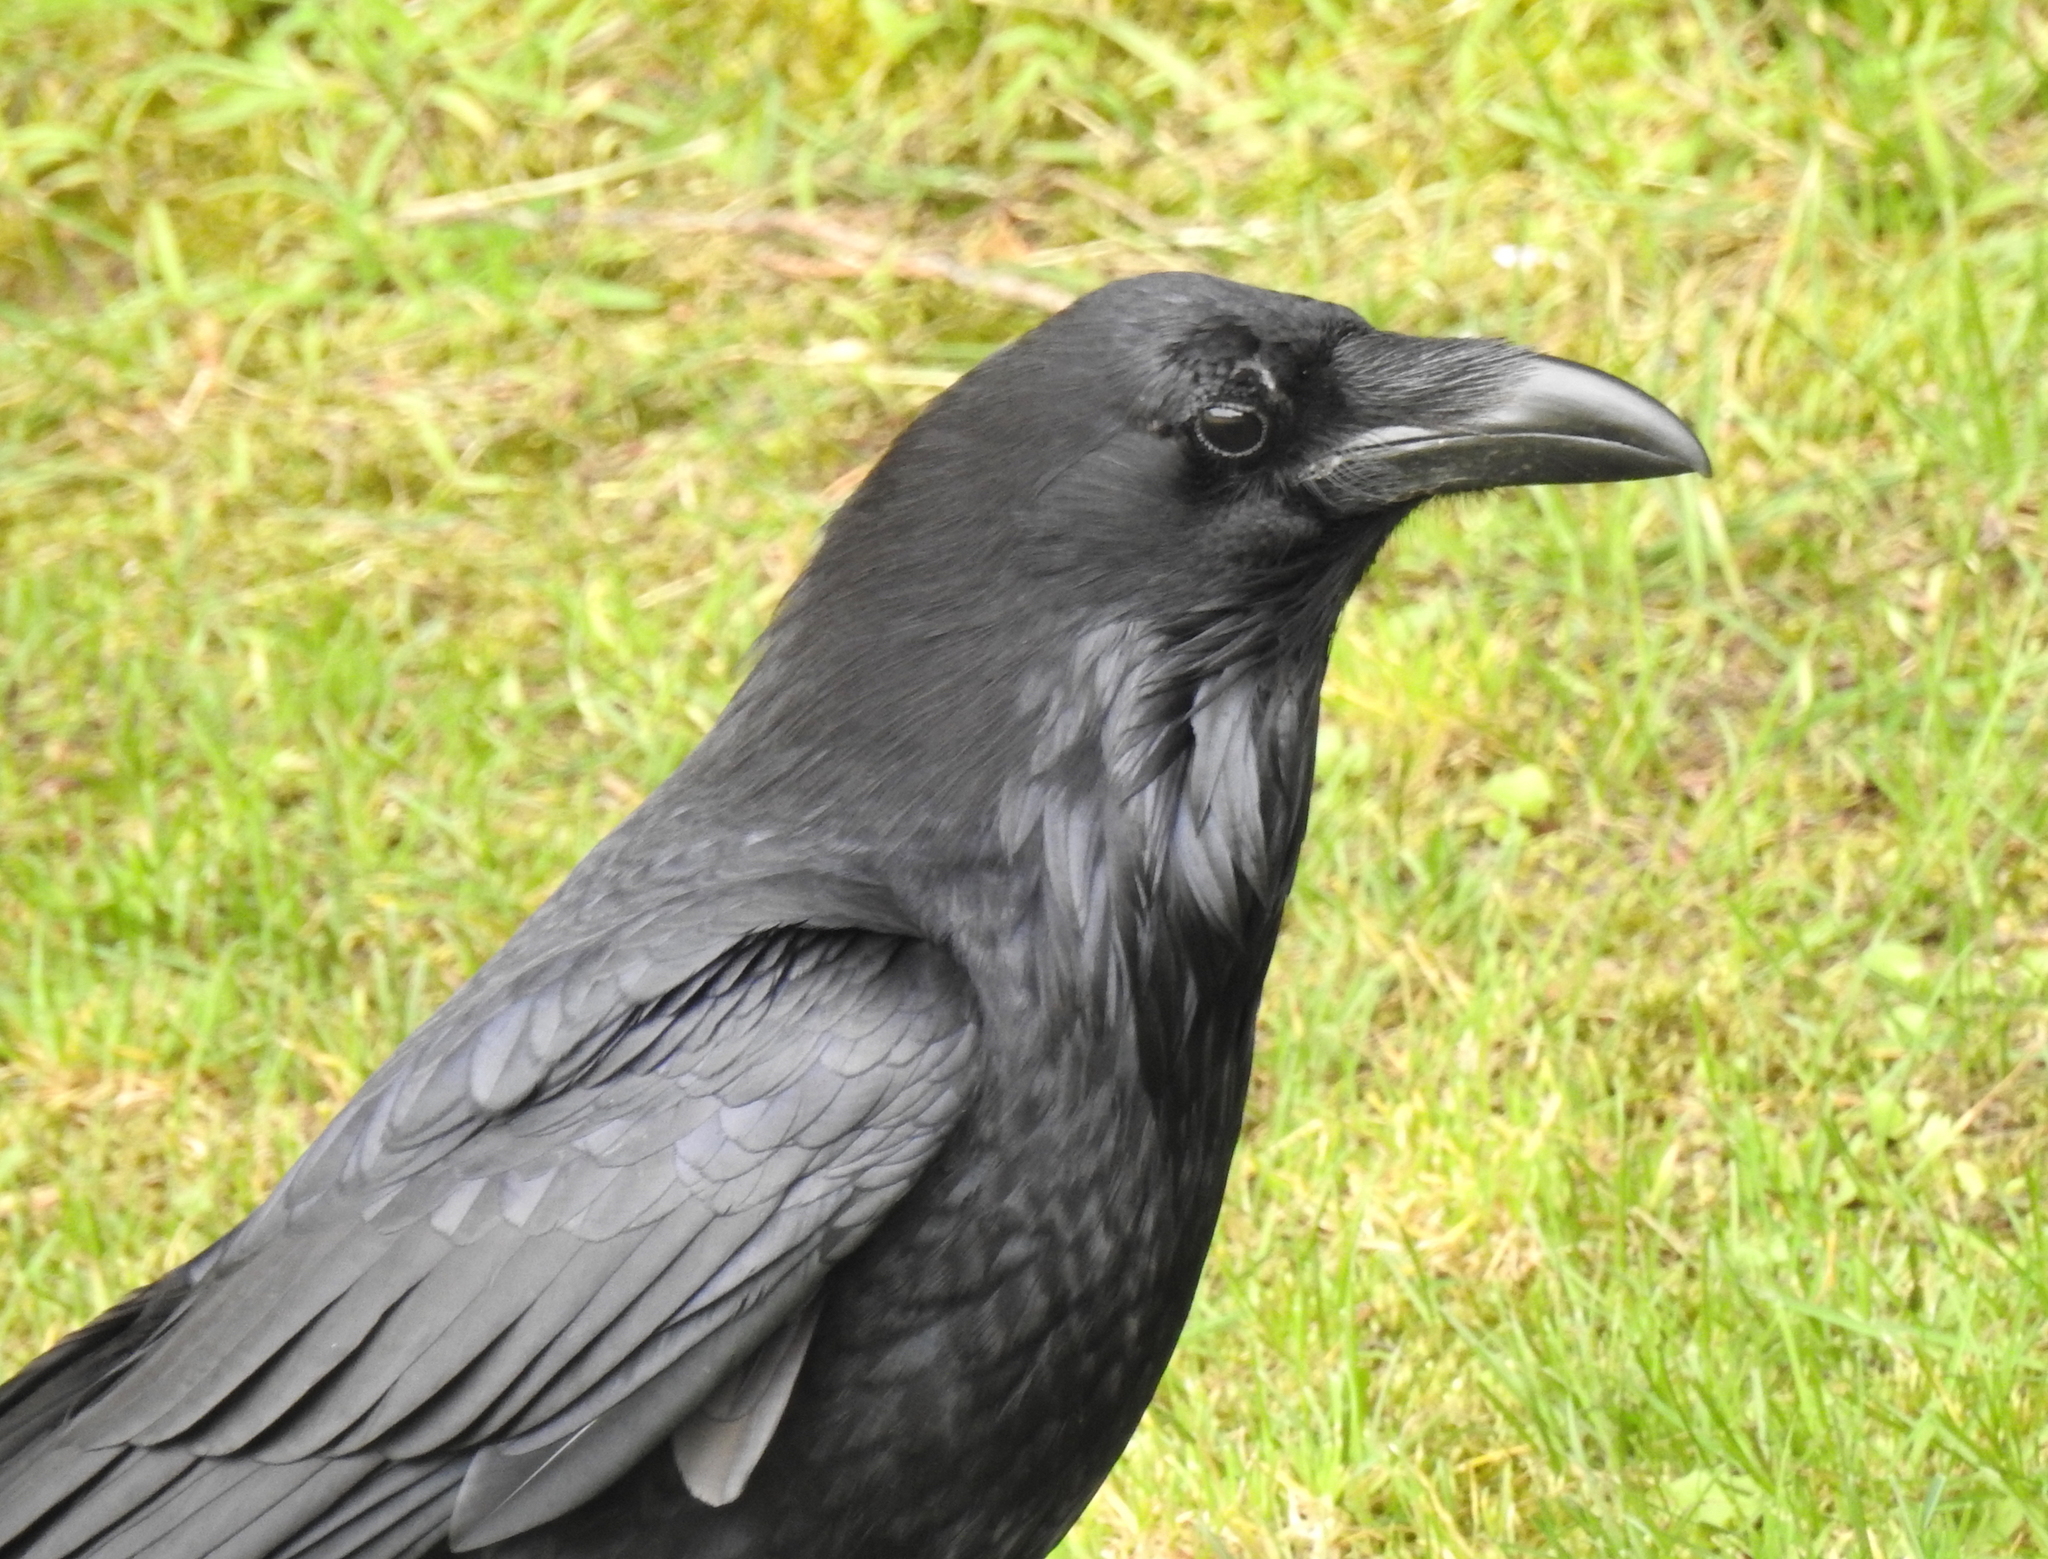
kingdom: Animalia
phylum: Chordata
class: Aves
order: Passeriformes
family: Corvidae
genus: Corvus
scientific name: Corvus corax
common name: Common raven
